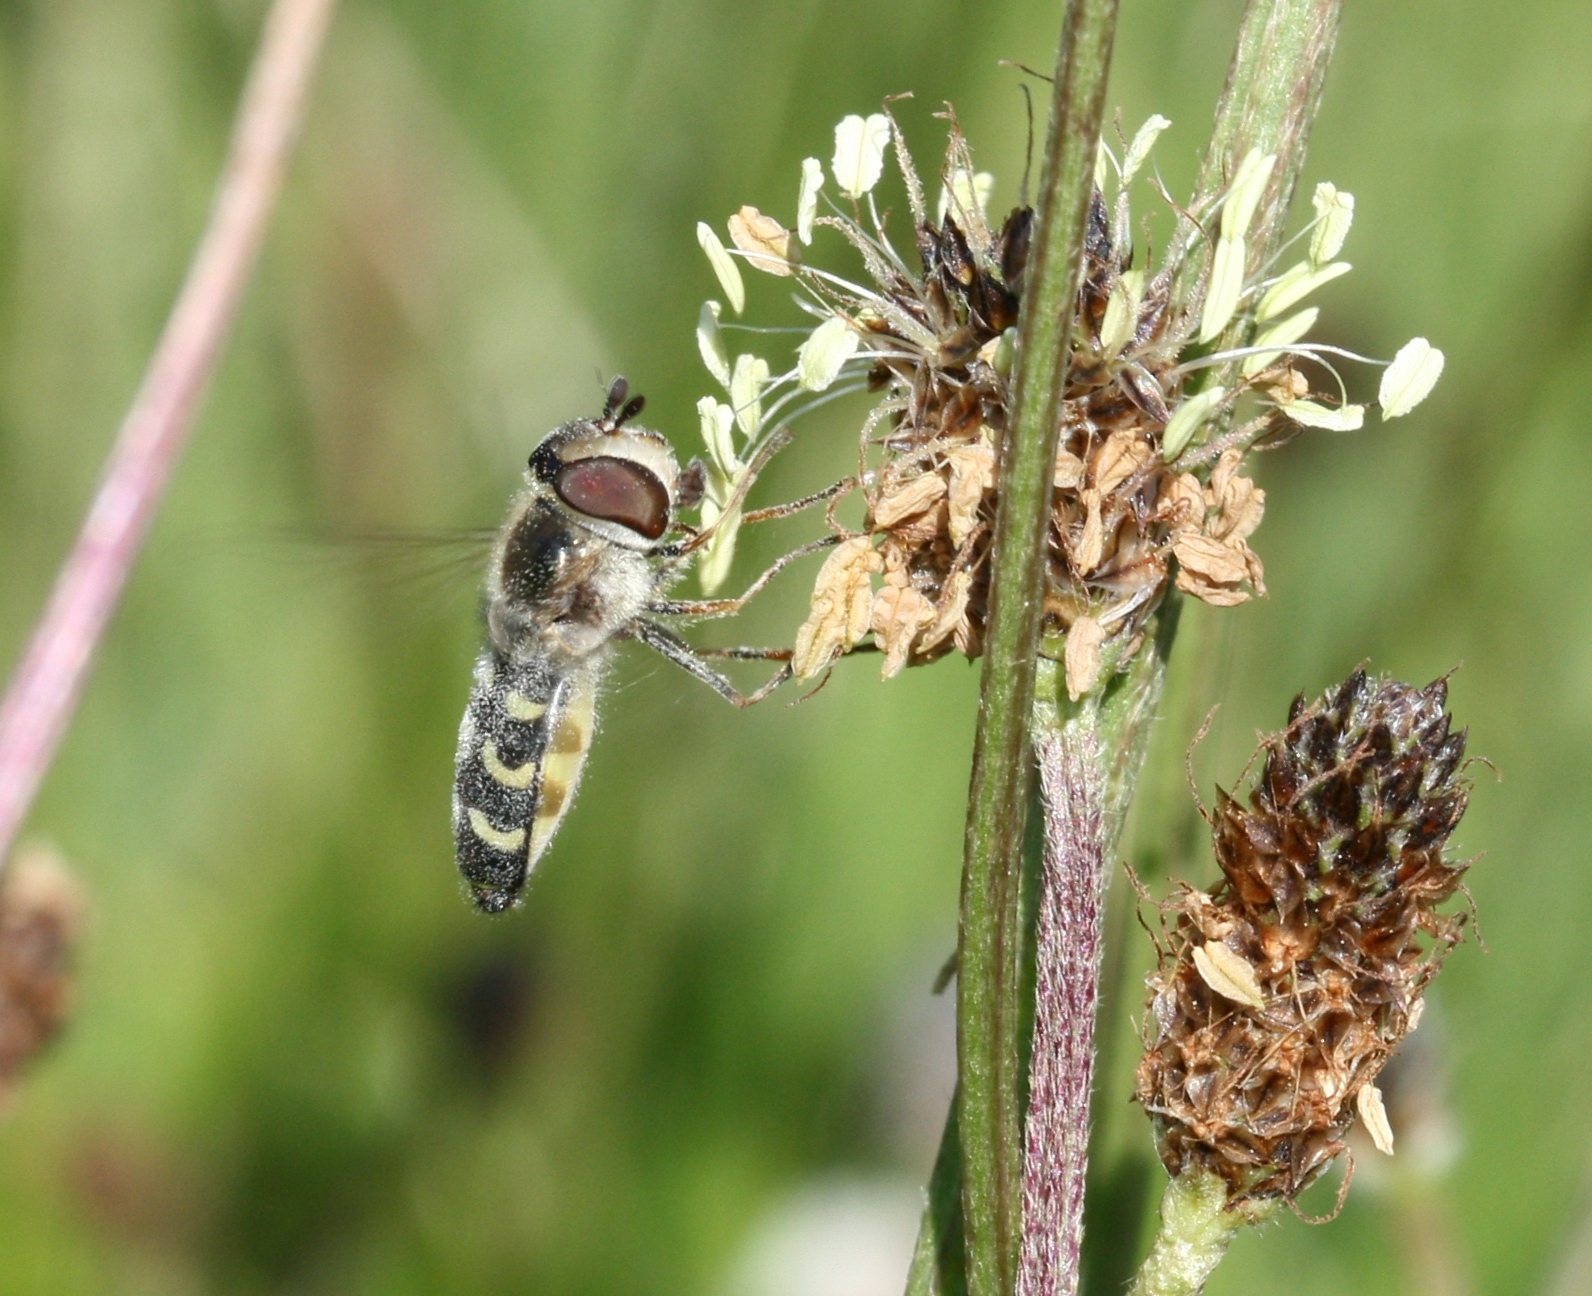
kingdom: Animalia
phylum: Arthropoda
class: Insecta
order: Diptera
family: Syrphidae
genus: Scaeva
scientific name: Scaeva selenitica
